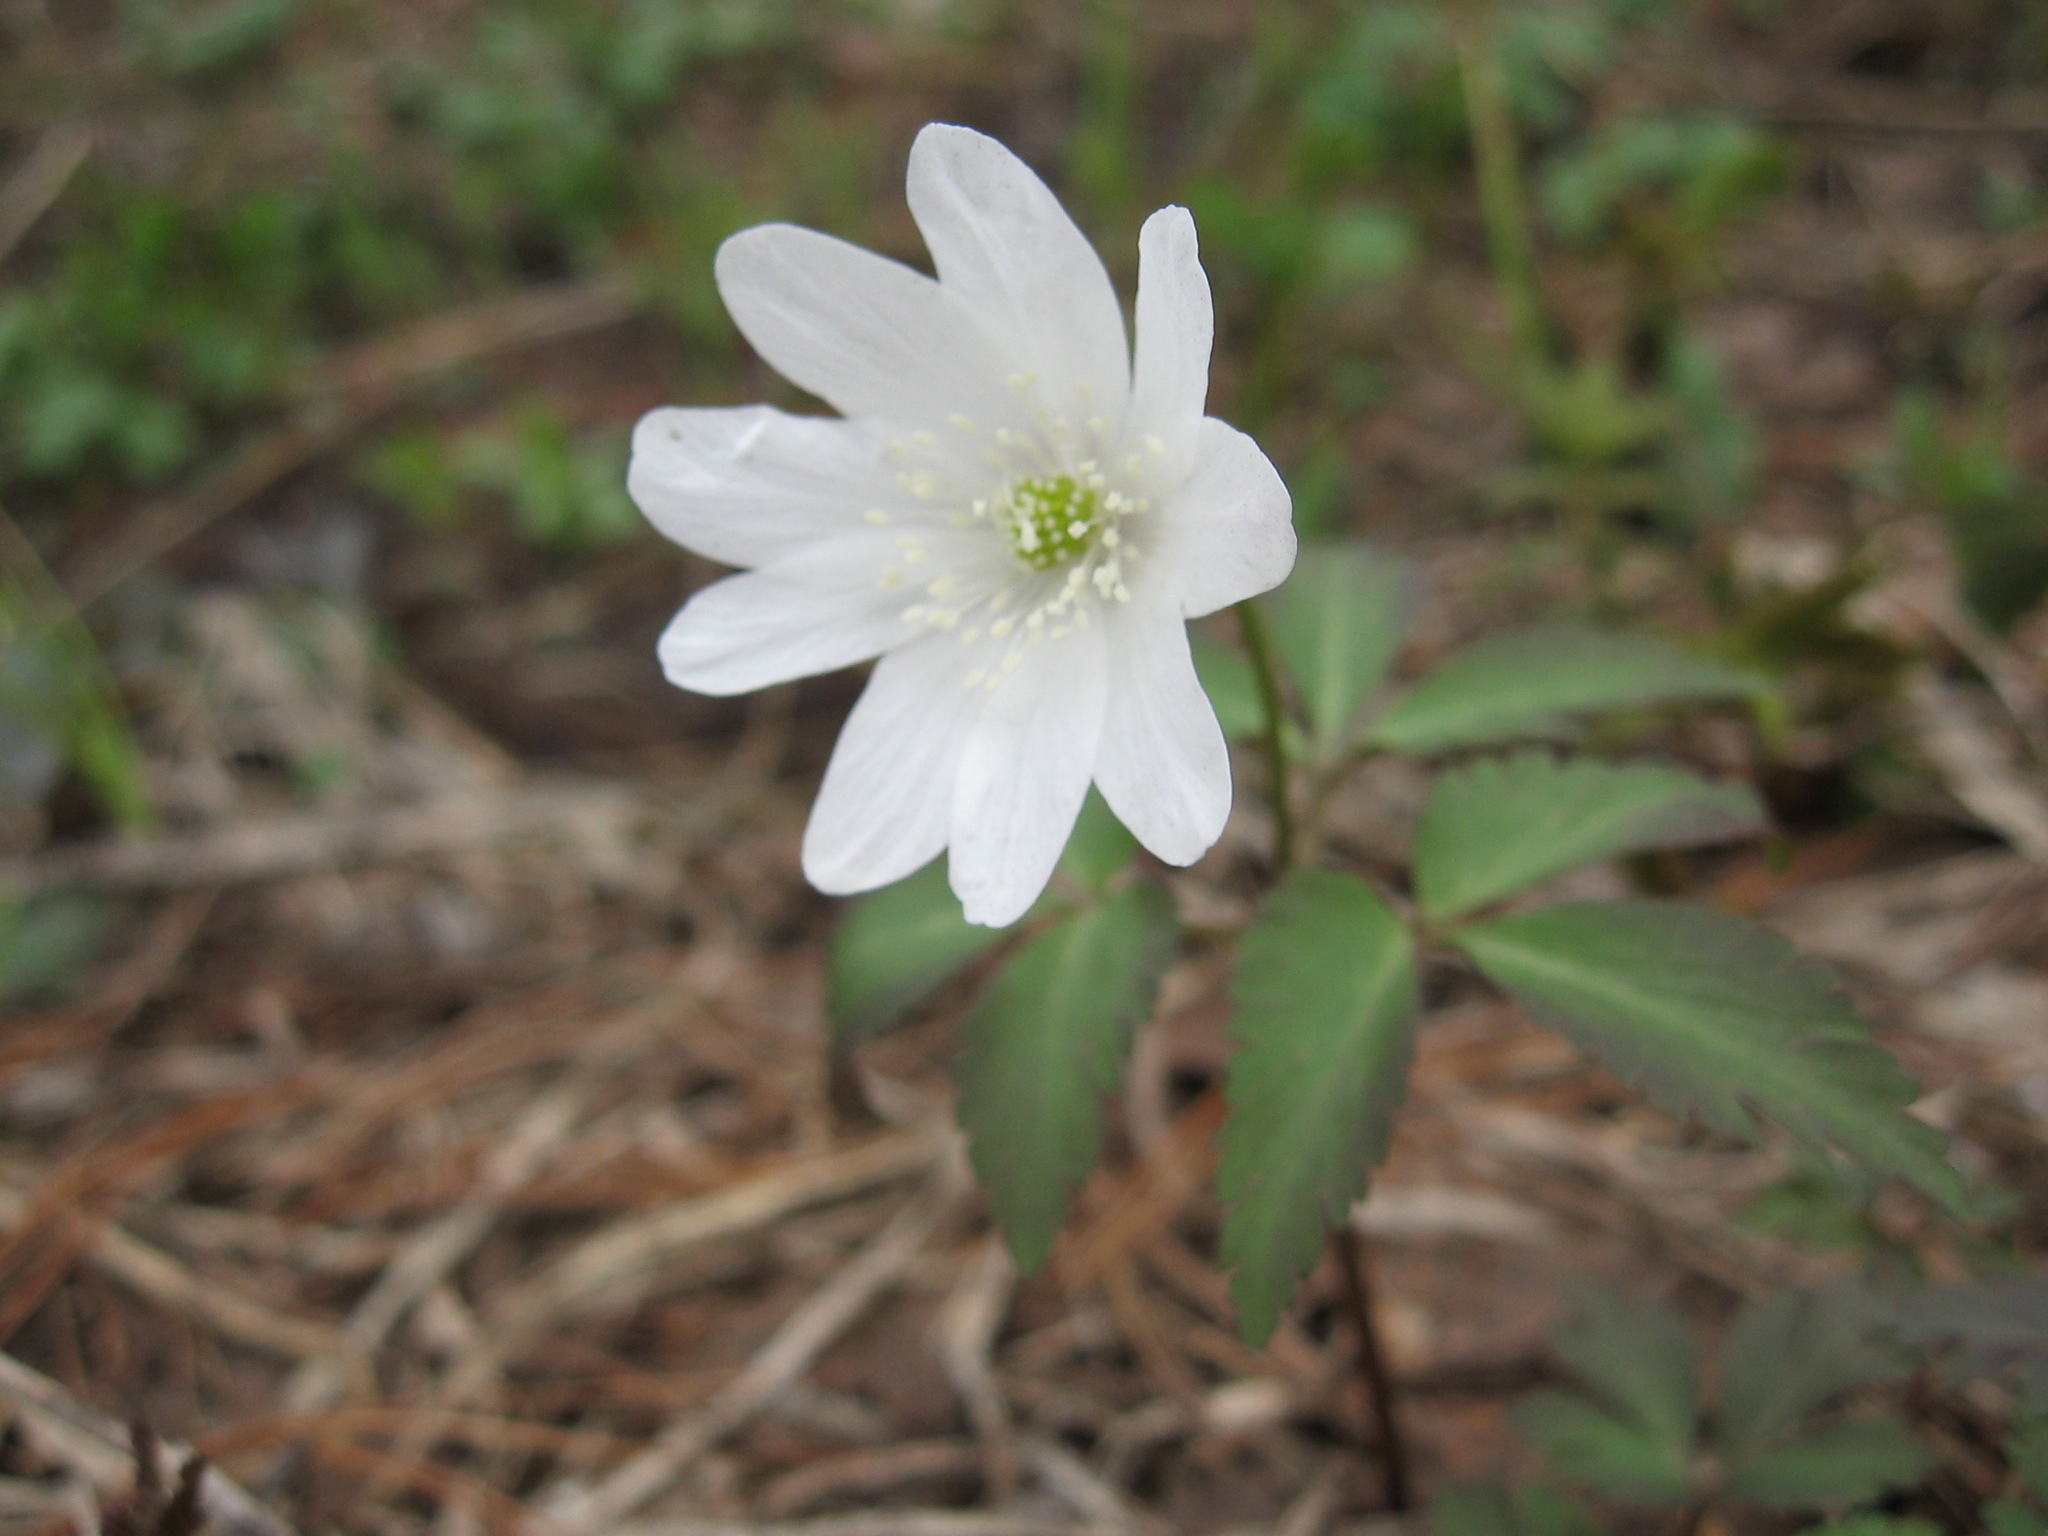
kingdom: Plantae
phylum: Tracheophyta
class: Magnoliopsida
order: Ranunculales
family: Ranunculaceae
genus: Anemone
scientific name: Anemone altaica
